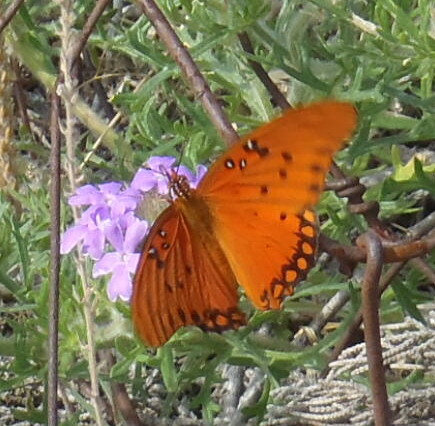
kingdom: Animalia
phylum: Arthropoda
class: Insecta
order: Lepidoptera
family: Nymphalidae
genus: Dione
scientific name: Dione vanillae
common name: Gulf fritillary
